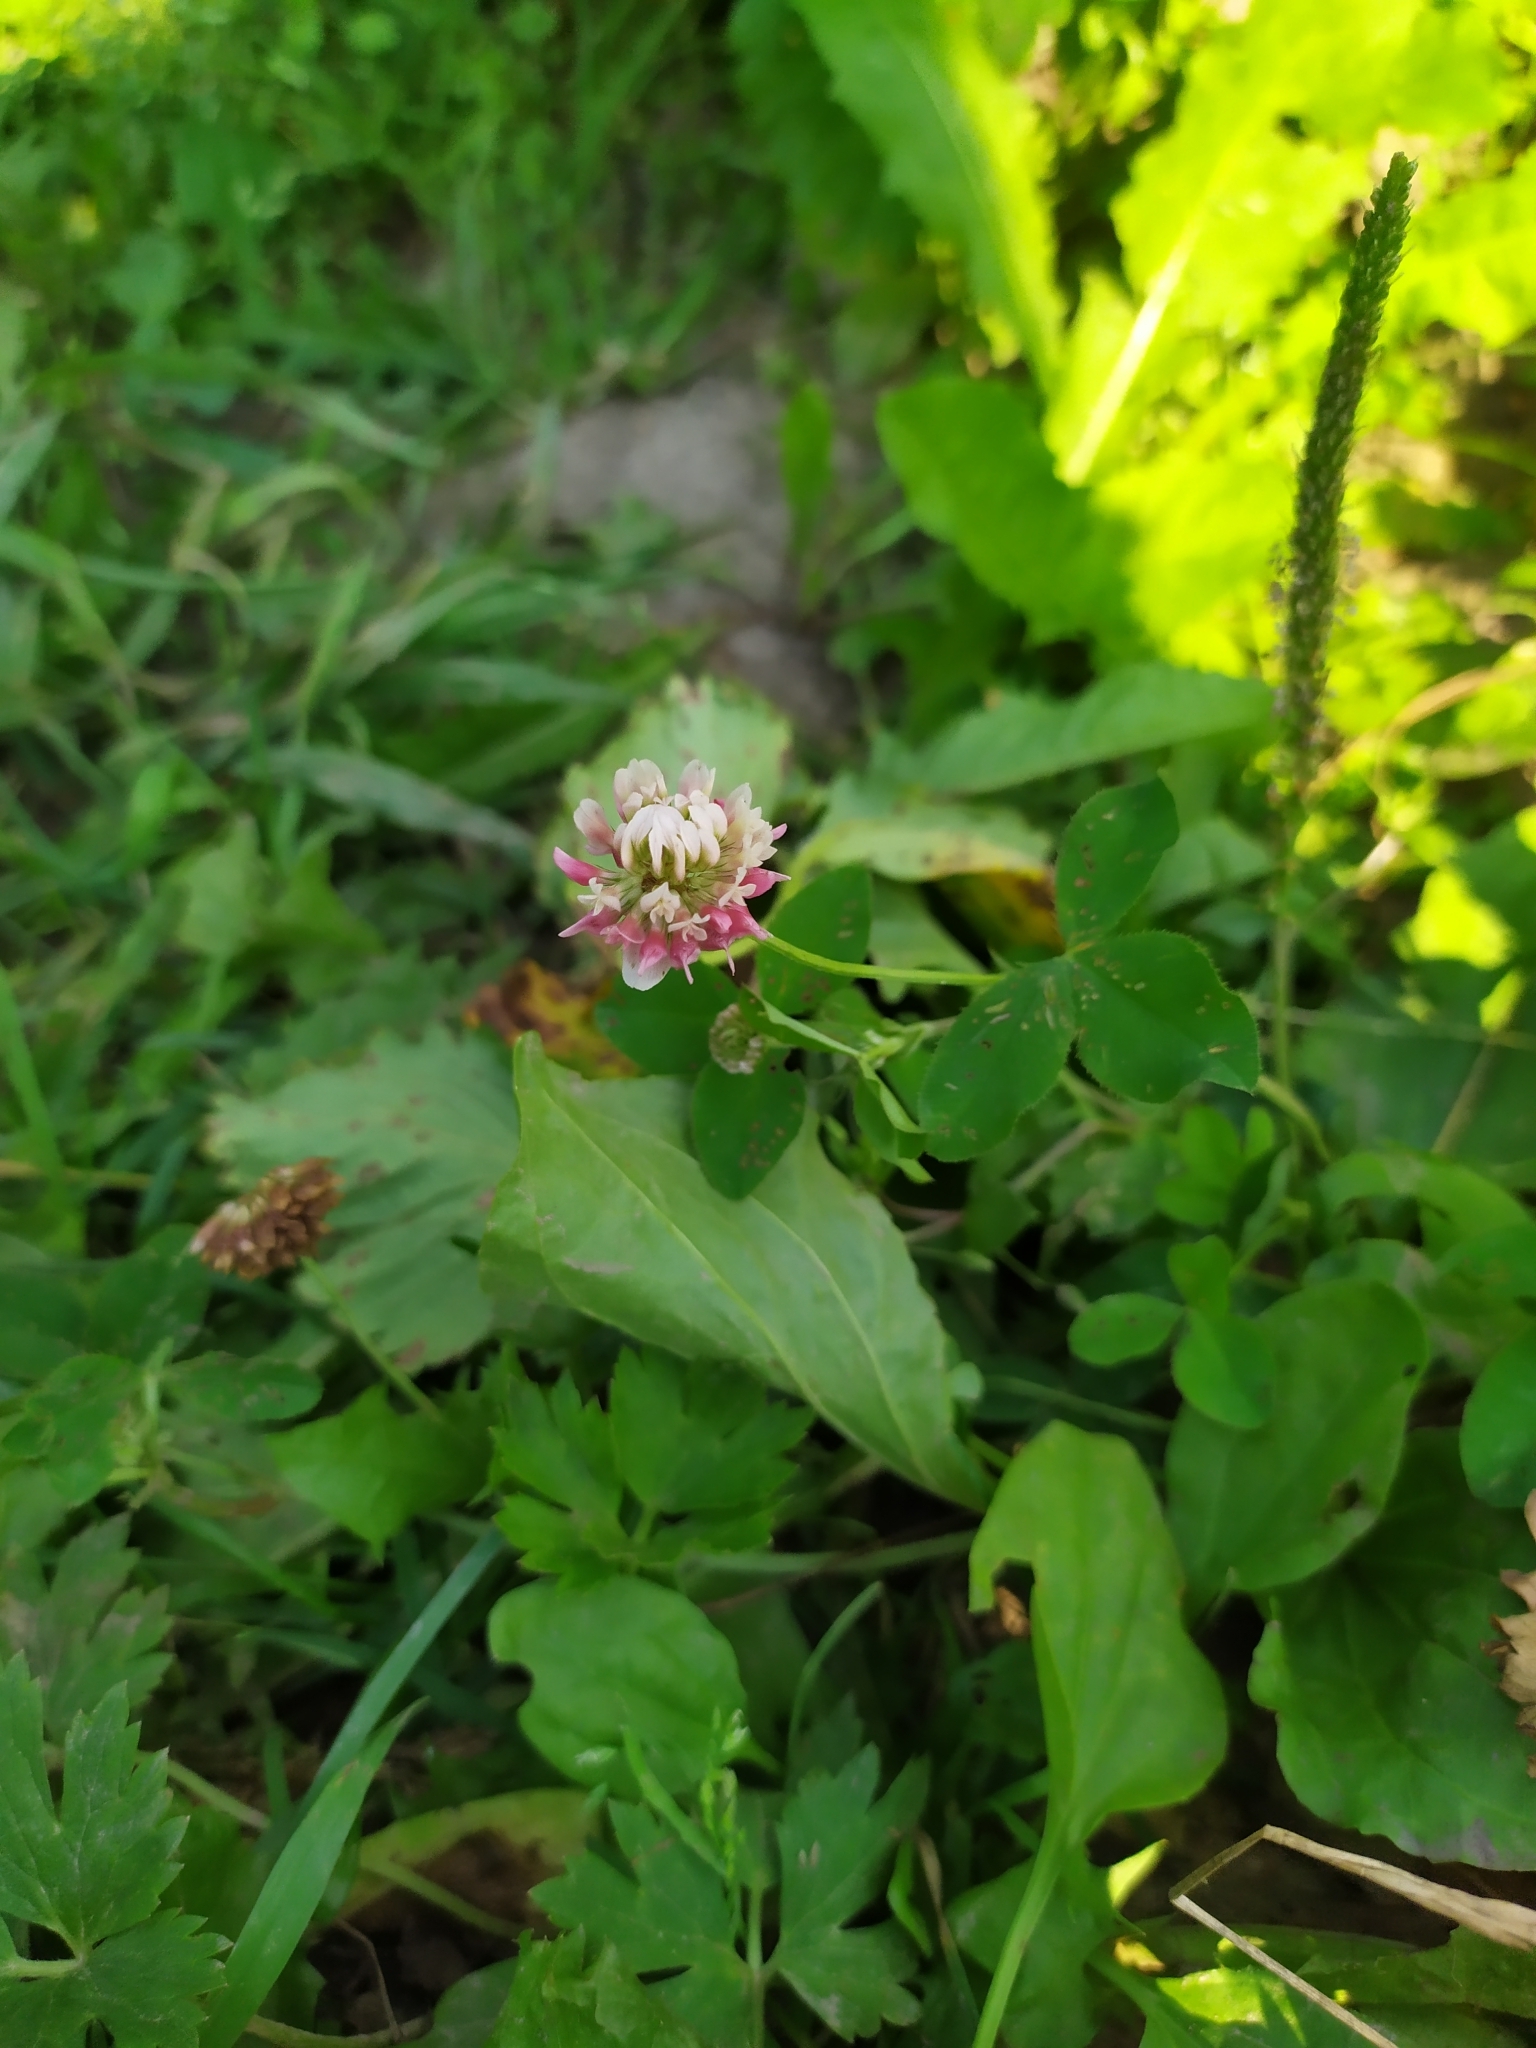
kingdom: Plantae
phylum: Tracheophyta
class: Magnoliopsida
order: Fabales
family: Fabaceae
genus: Trifolium
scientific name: Trifolium hybridum
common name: Alsike clover
